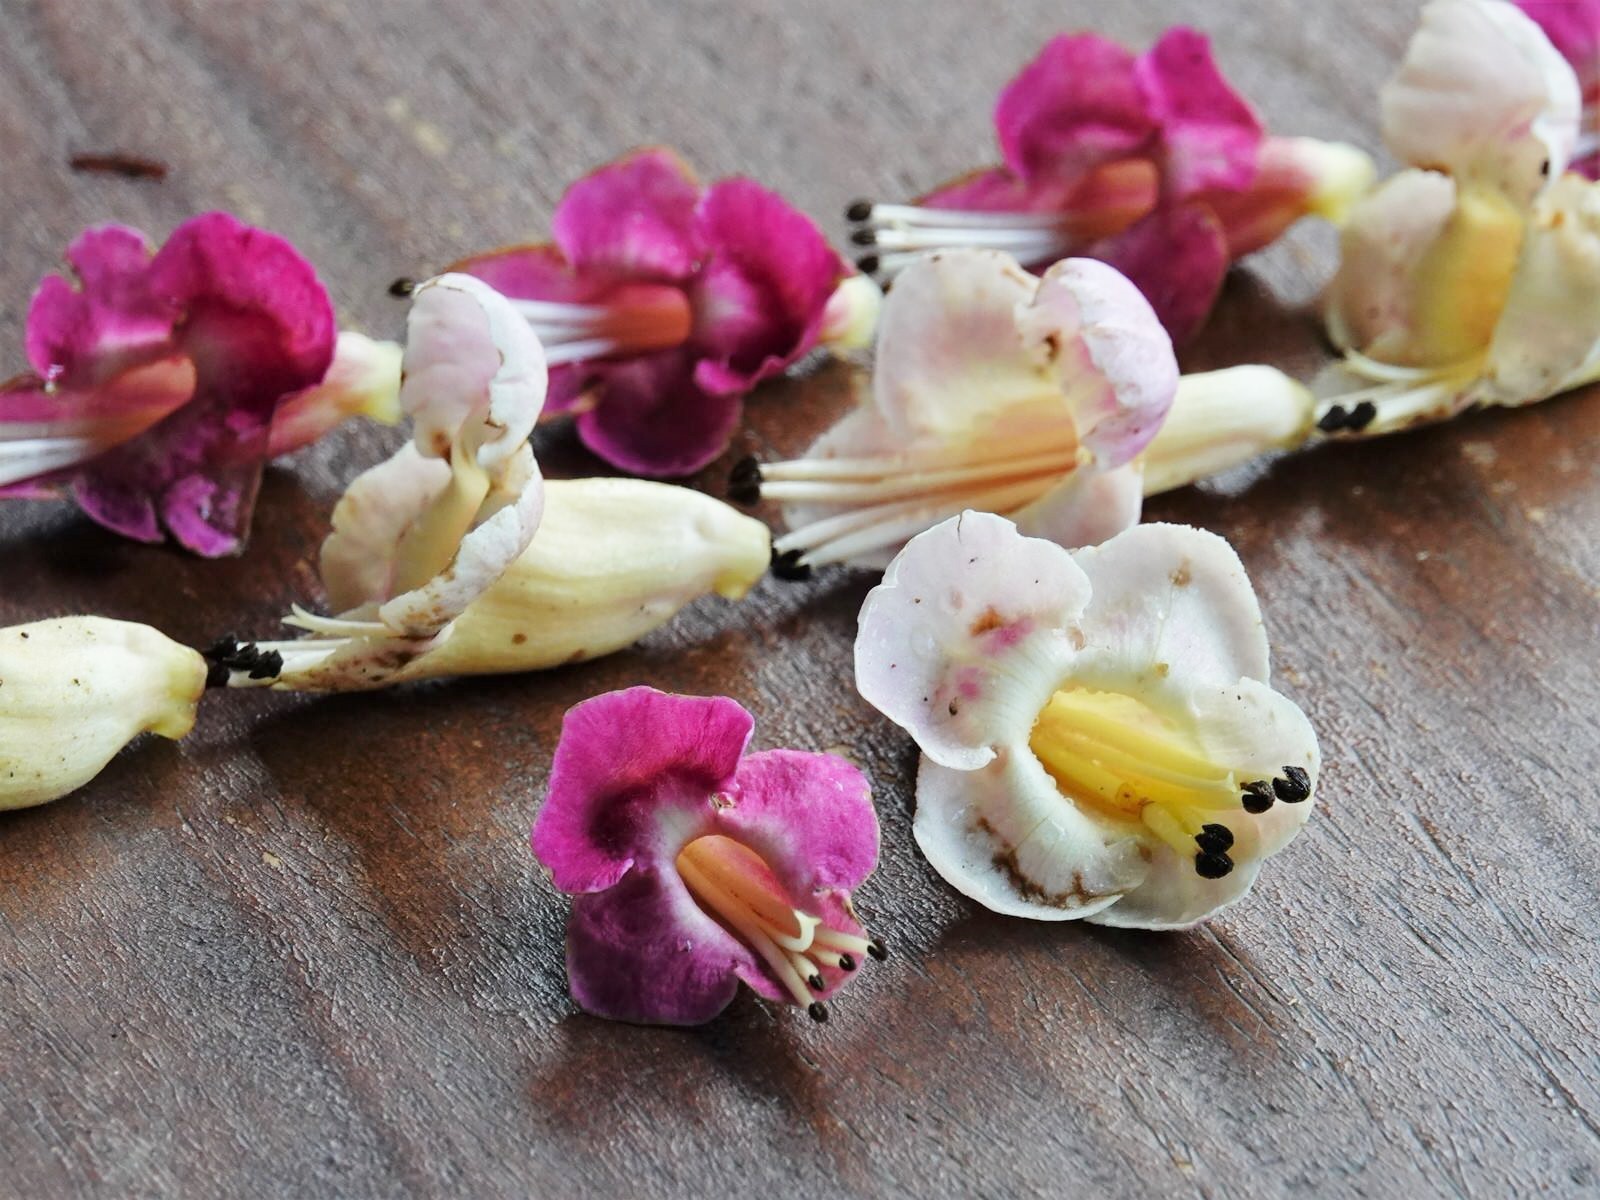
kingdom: Plantae
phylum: Tracheophyta
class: Magnoliopsida
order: Lamiales
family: Lamiaceae
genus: Vitex
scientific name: Vitex lucens
